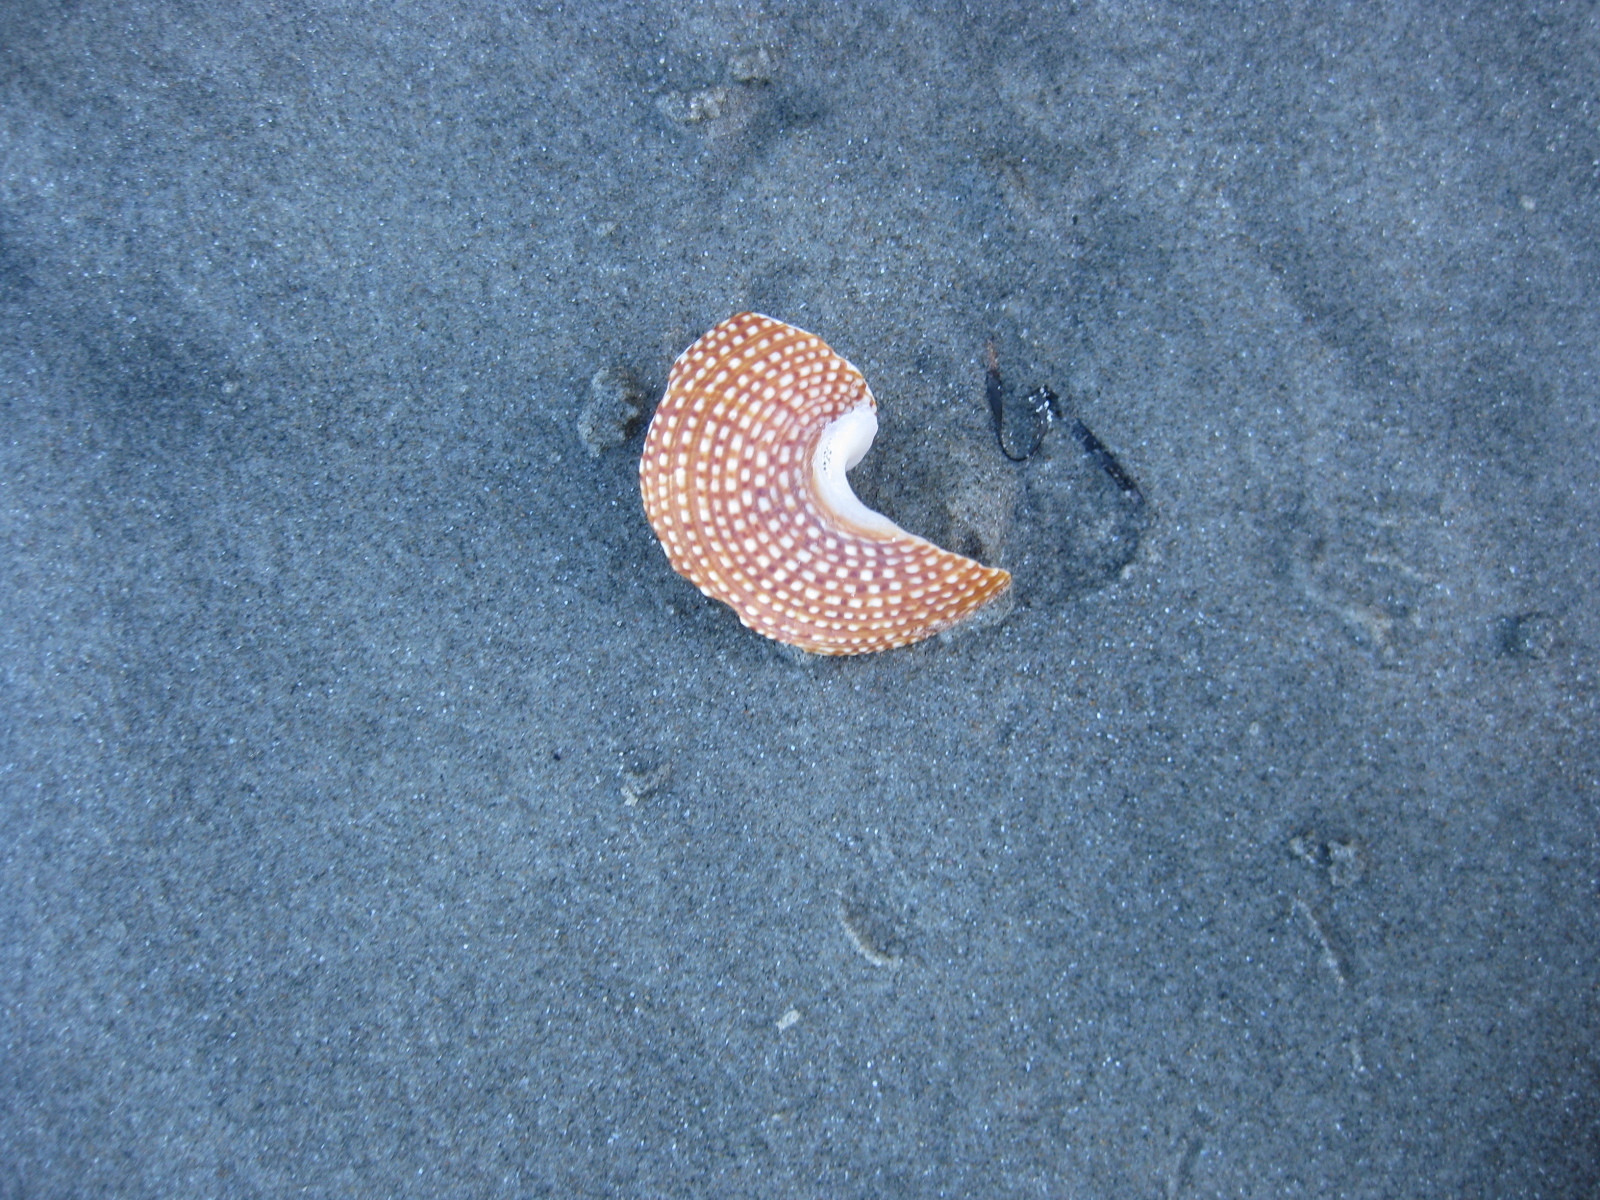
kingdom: Animalia
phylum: Mollusca
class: Gastropoda
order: Trochida
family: Calliostomatidae
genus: Maurea
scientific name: Maurea punctulata
